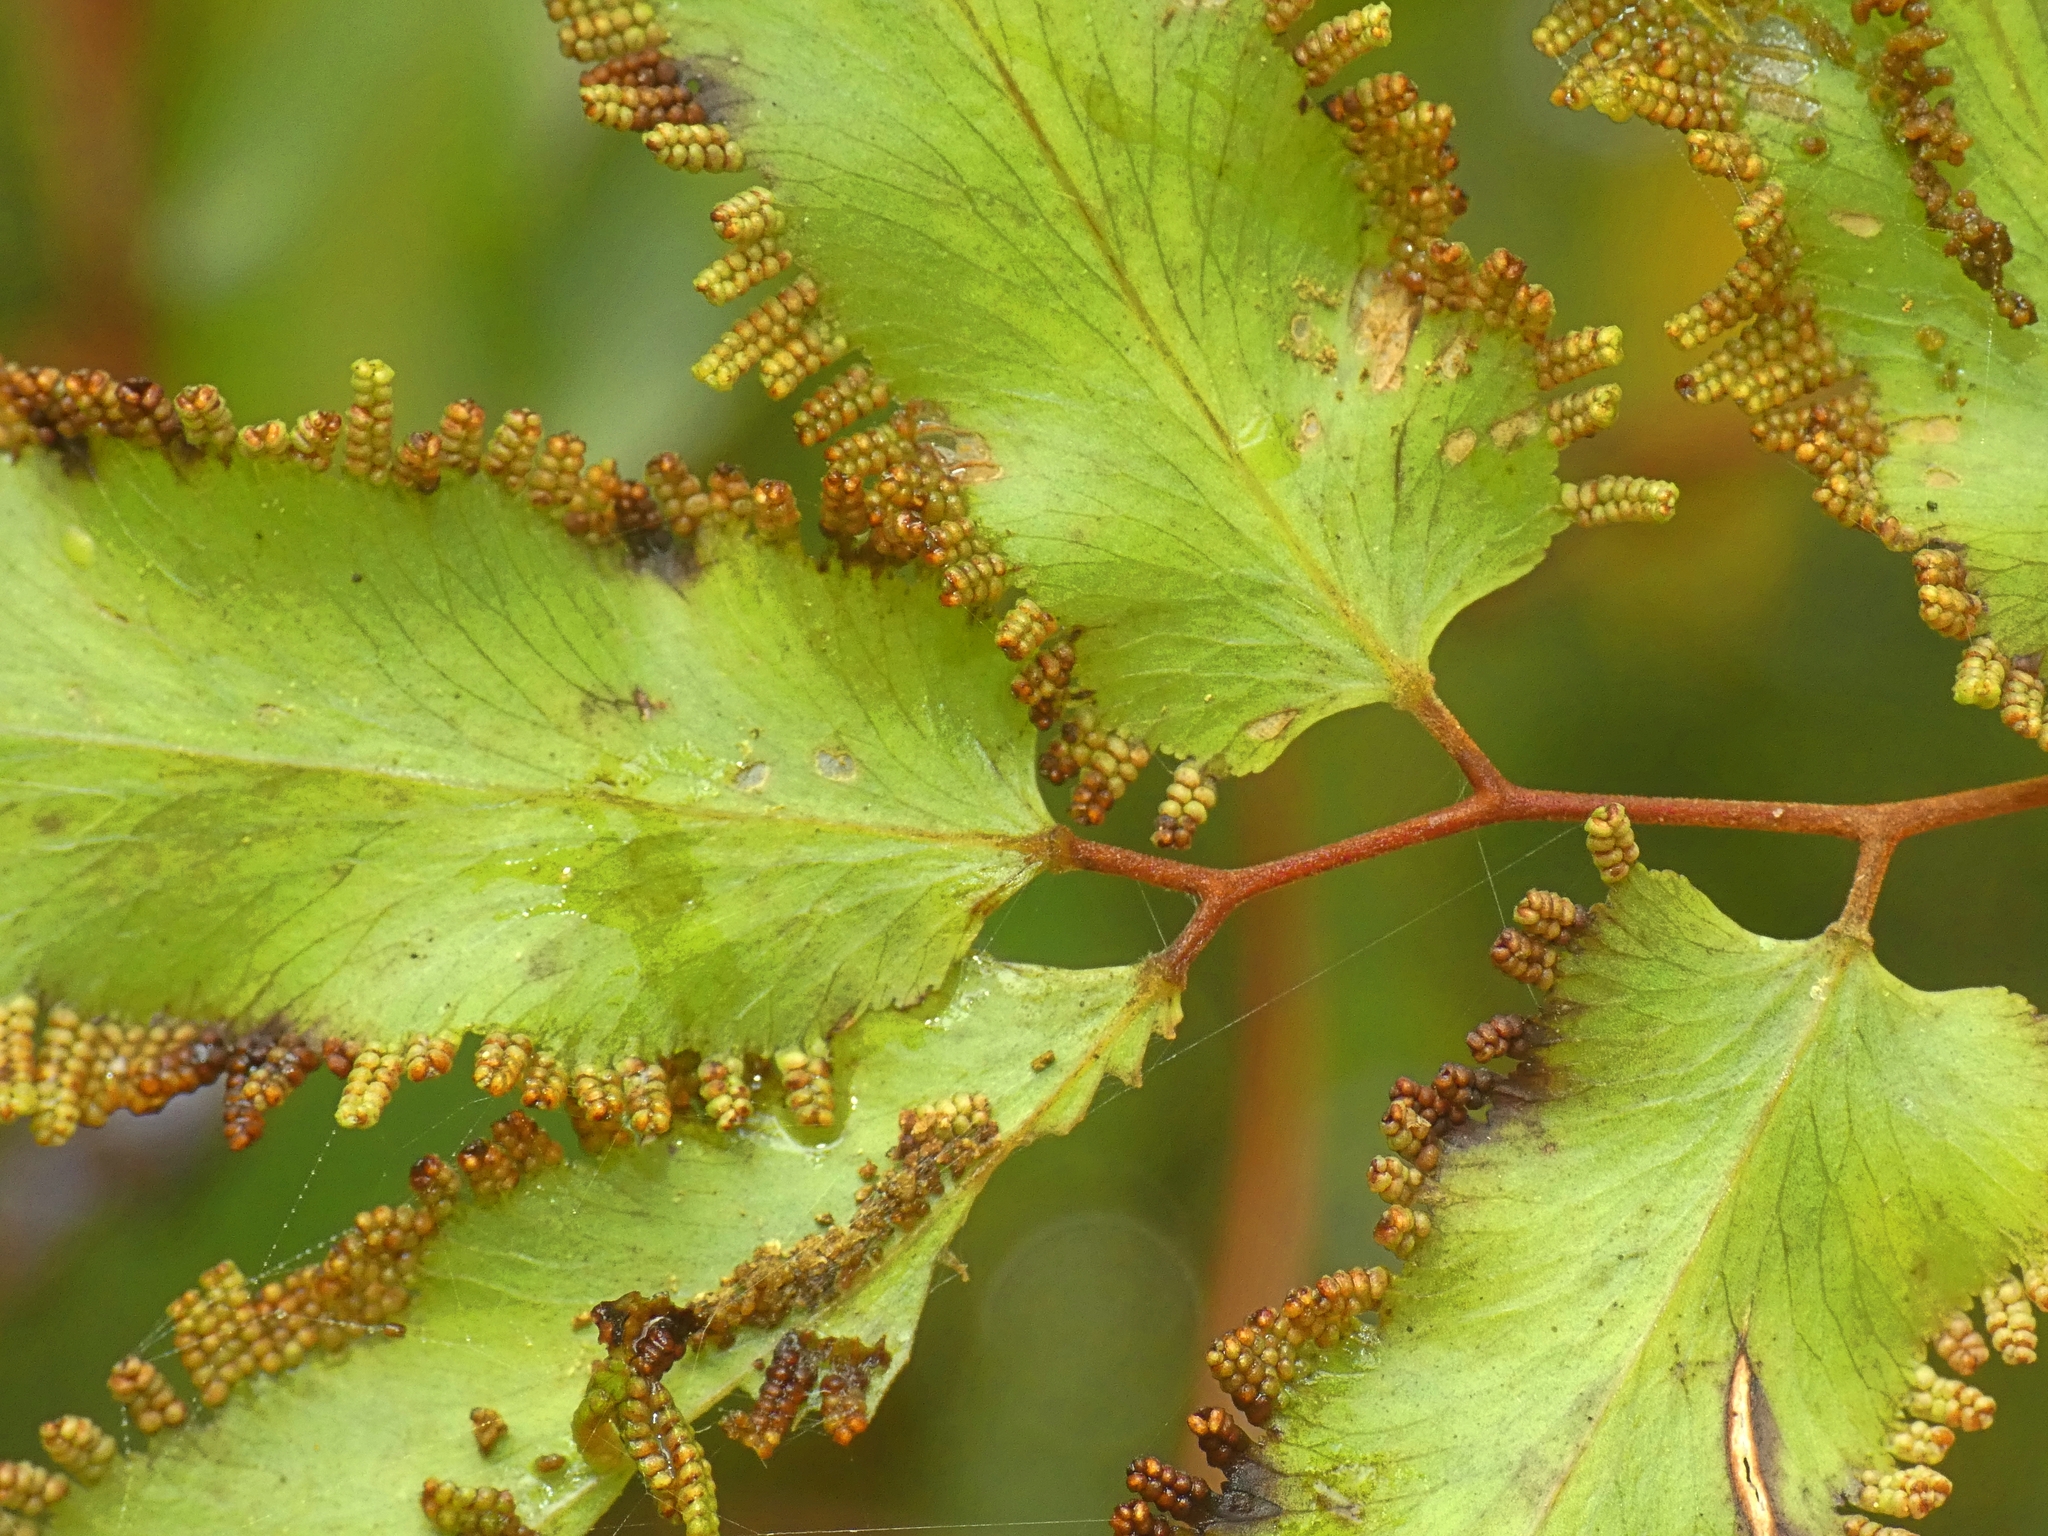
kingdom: Plantae
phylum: Tracheophyta
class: Polypodiopsida
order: Schizaeales
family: Lygodiaceae
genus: Lygodium
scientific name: Lygodium reticulatum
